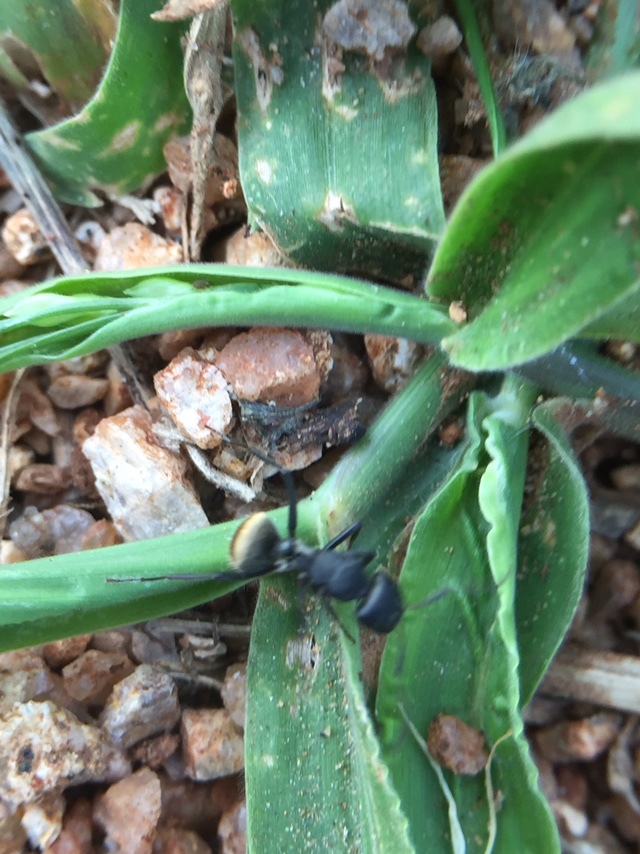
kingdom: Animalia
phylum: Arthropoda
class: Insecta
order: Hymenoptera
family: Formicidae
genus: Camponotus
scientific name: Camponotus sericeus
